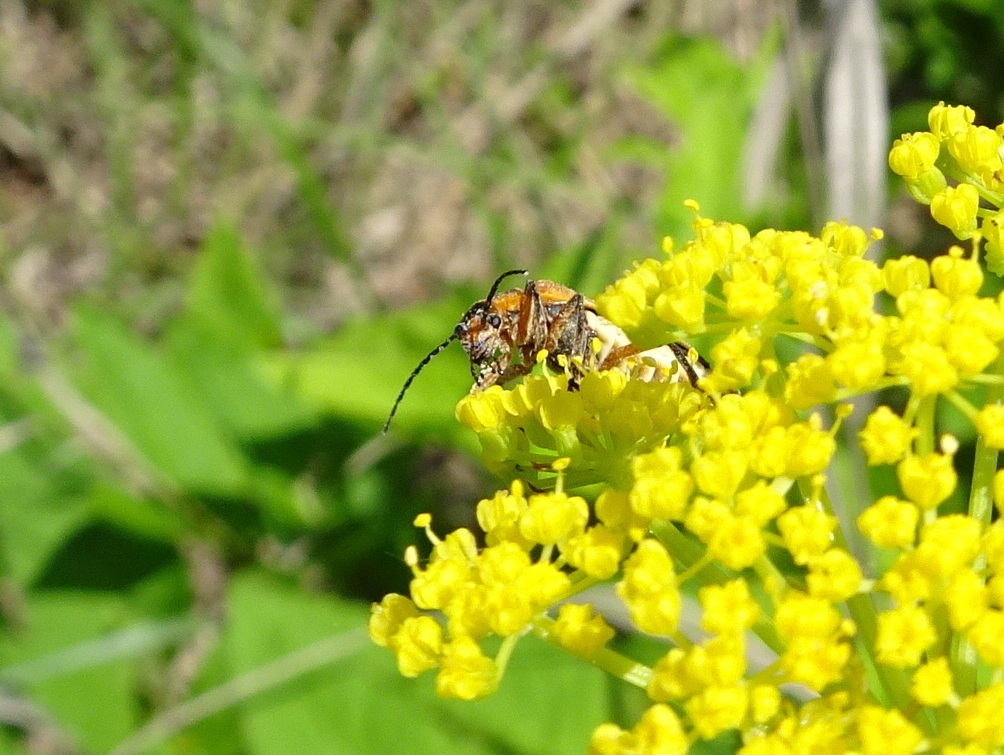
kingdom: Animalia
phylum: Arthropoda
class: Insecta
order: Coleoptera
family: Cantharidae
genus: Chauliognathus
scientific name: Chauliognathus marginatus
